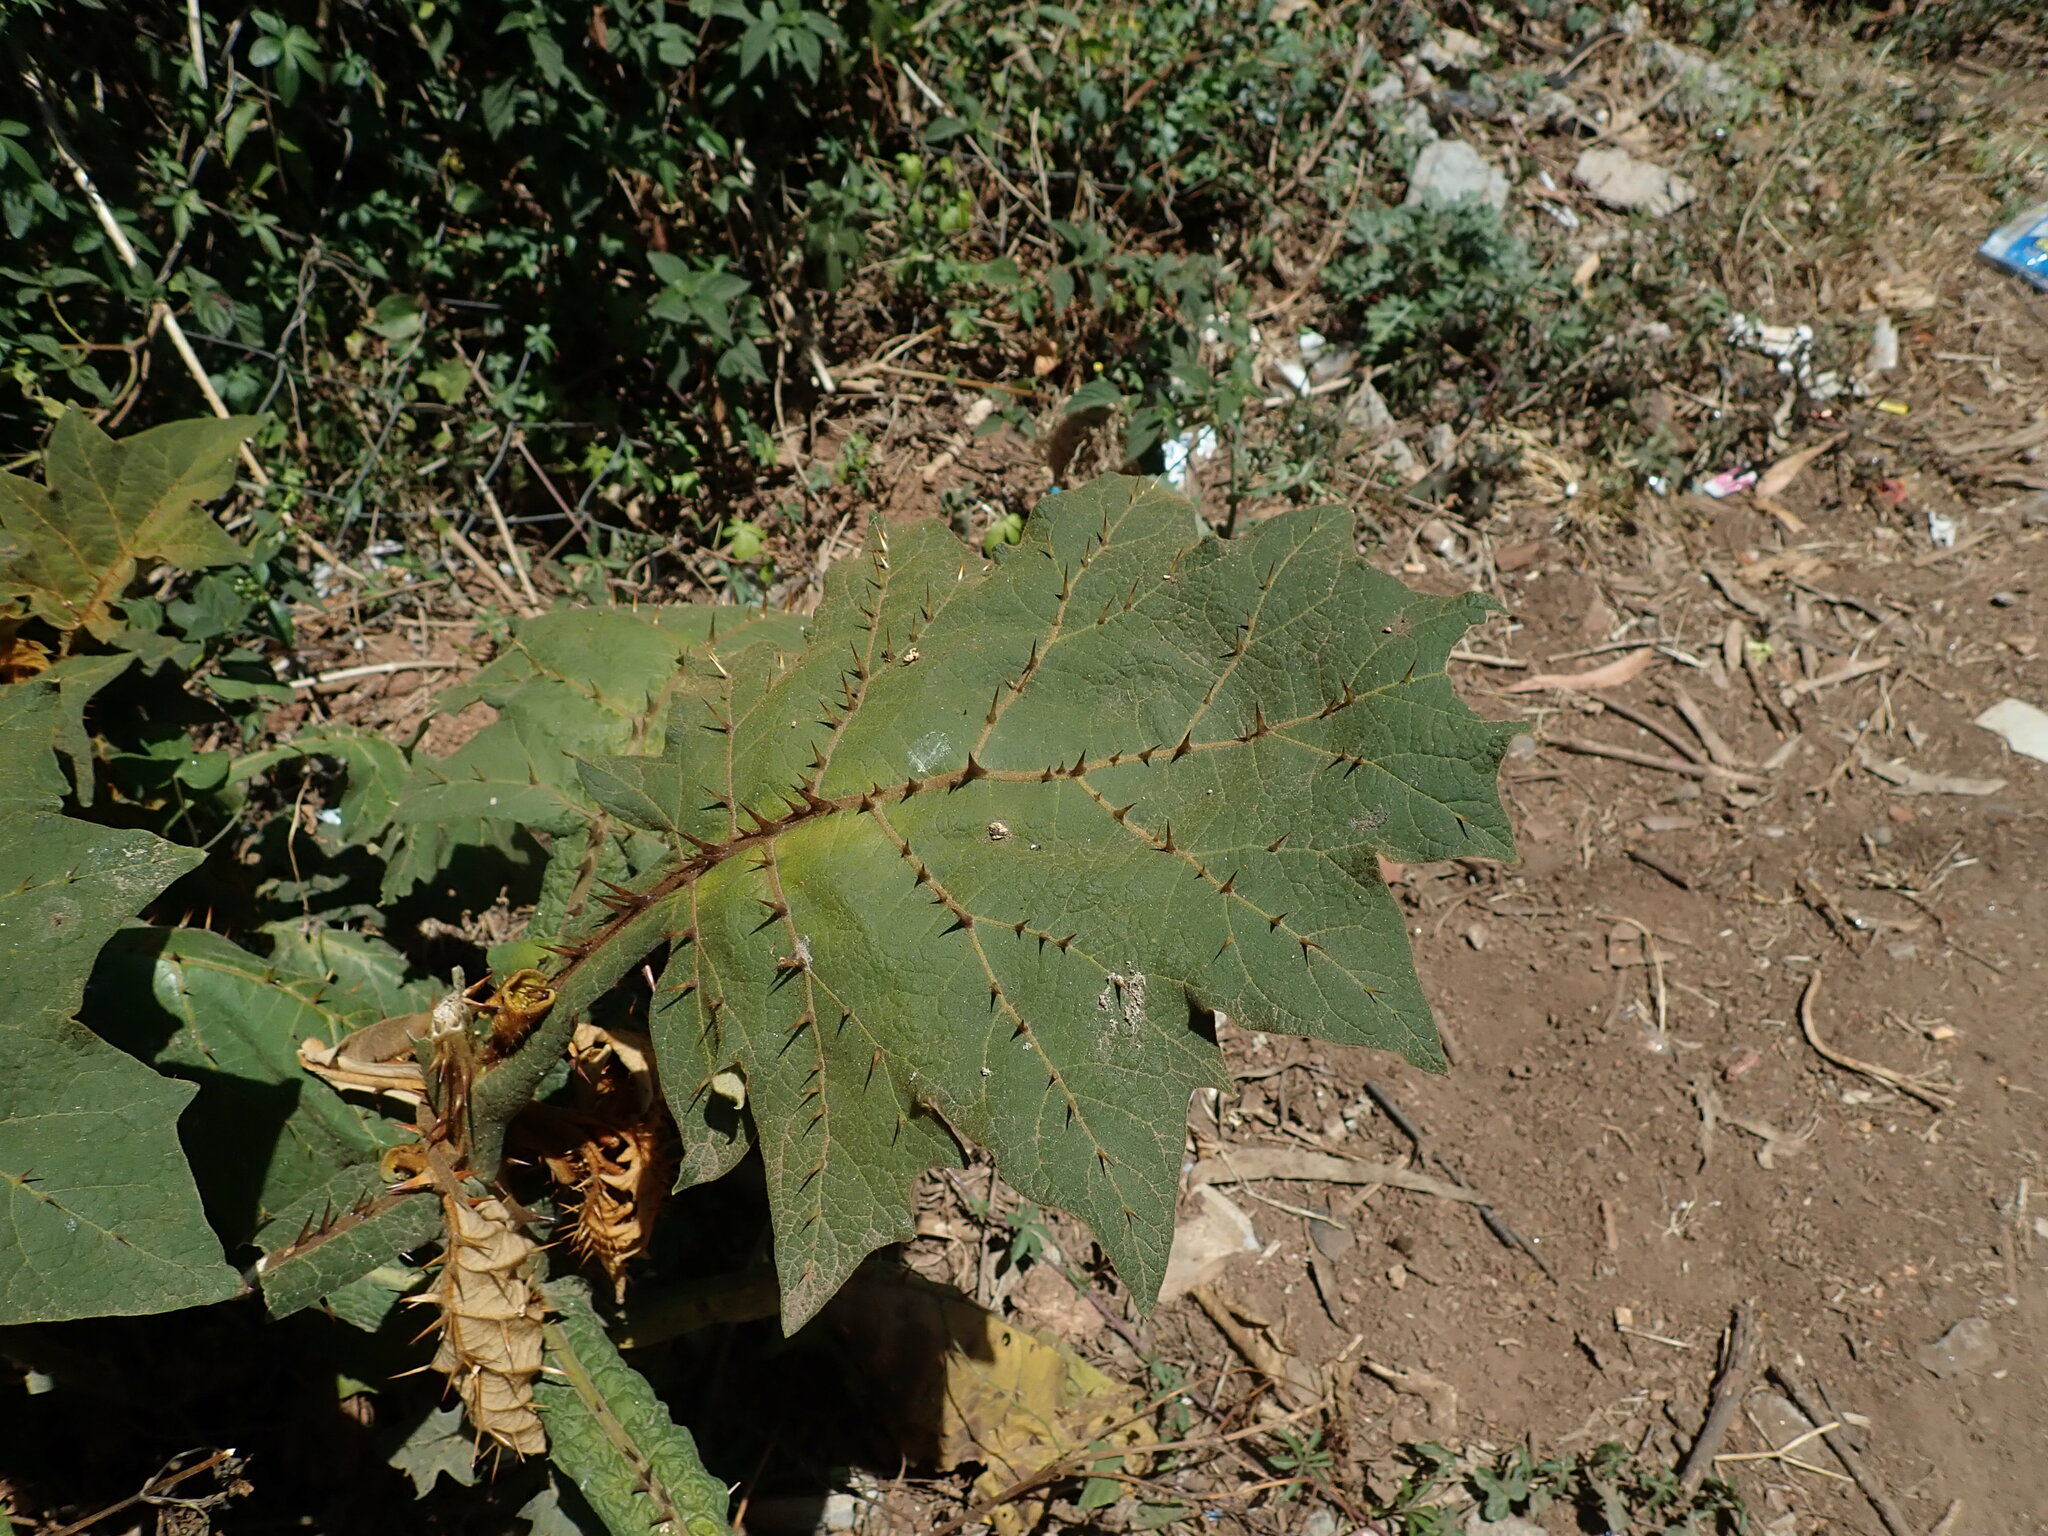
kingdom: Plantae
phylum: Tracheophyta
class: Magnoliopsida
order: Solanales
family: Solanaceae
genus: Solanum
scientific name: Solanum robustum
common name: Shrubby nightshade
